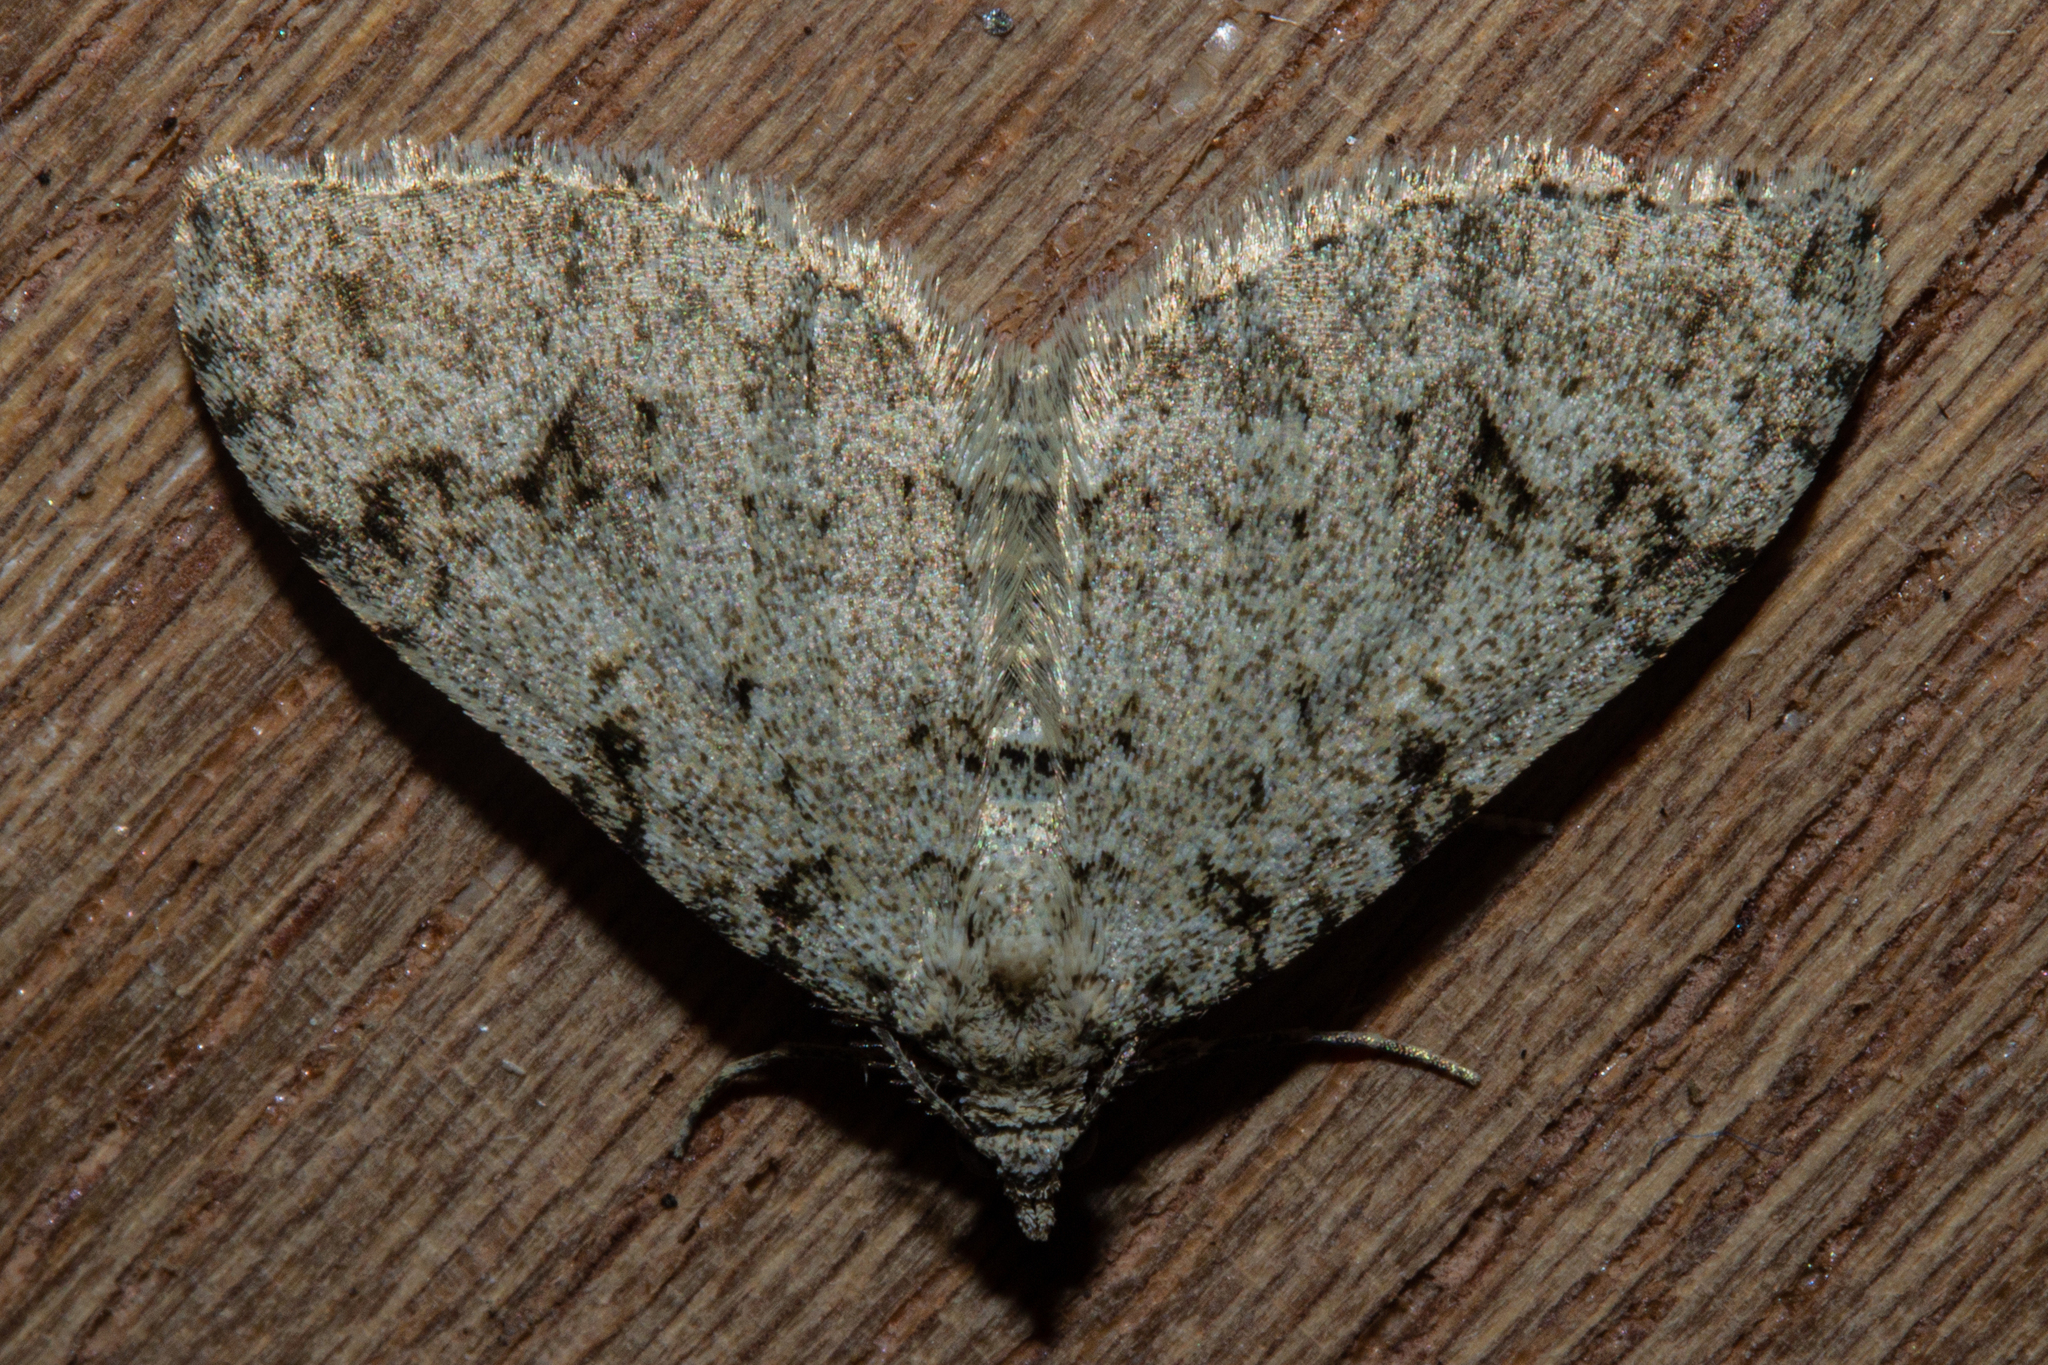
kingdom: Animalia
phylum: Arthropoda
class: Insecta
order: Lepidoptera
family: Geometridae
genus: Helastia
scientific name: Helastia cinerearia
